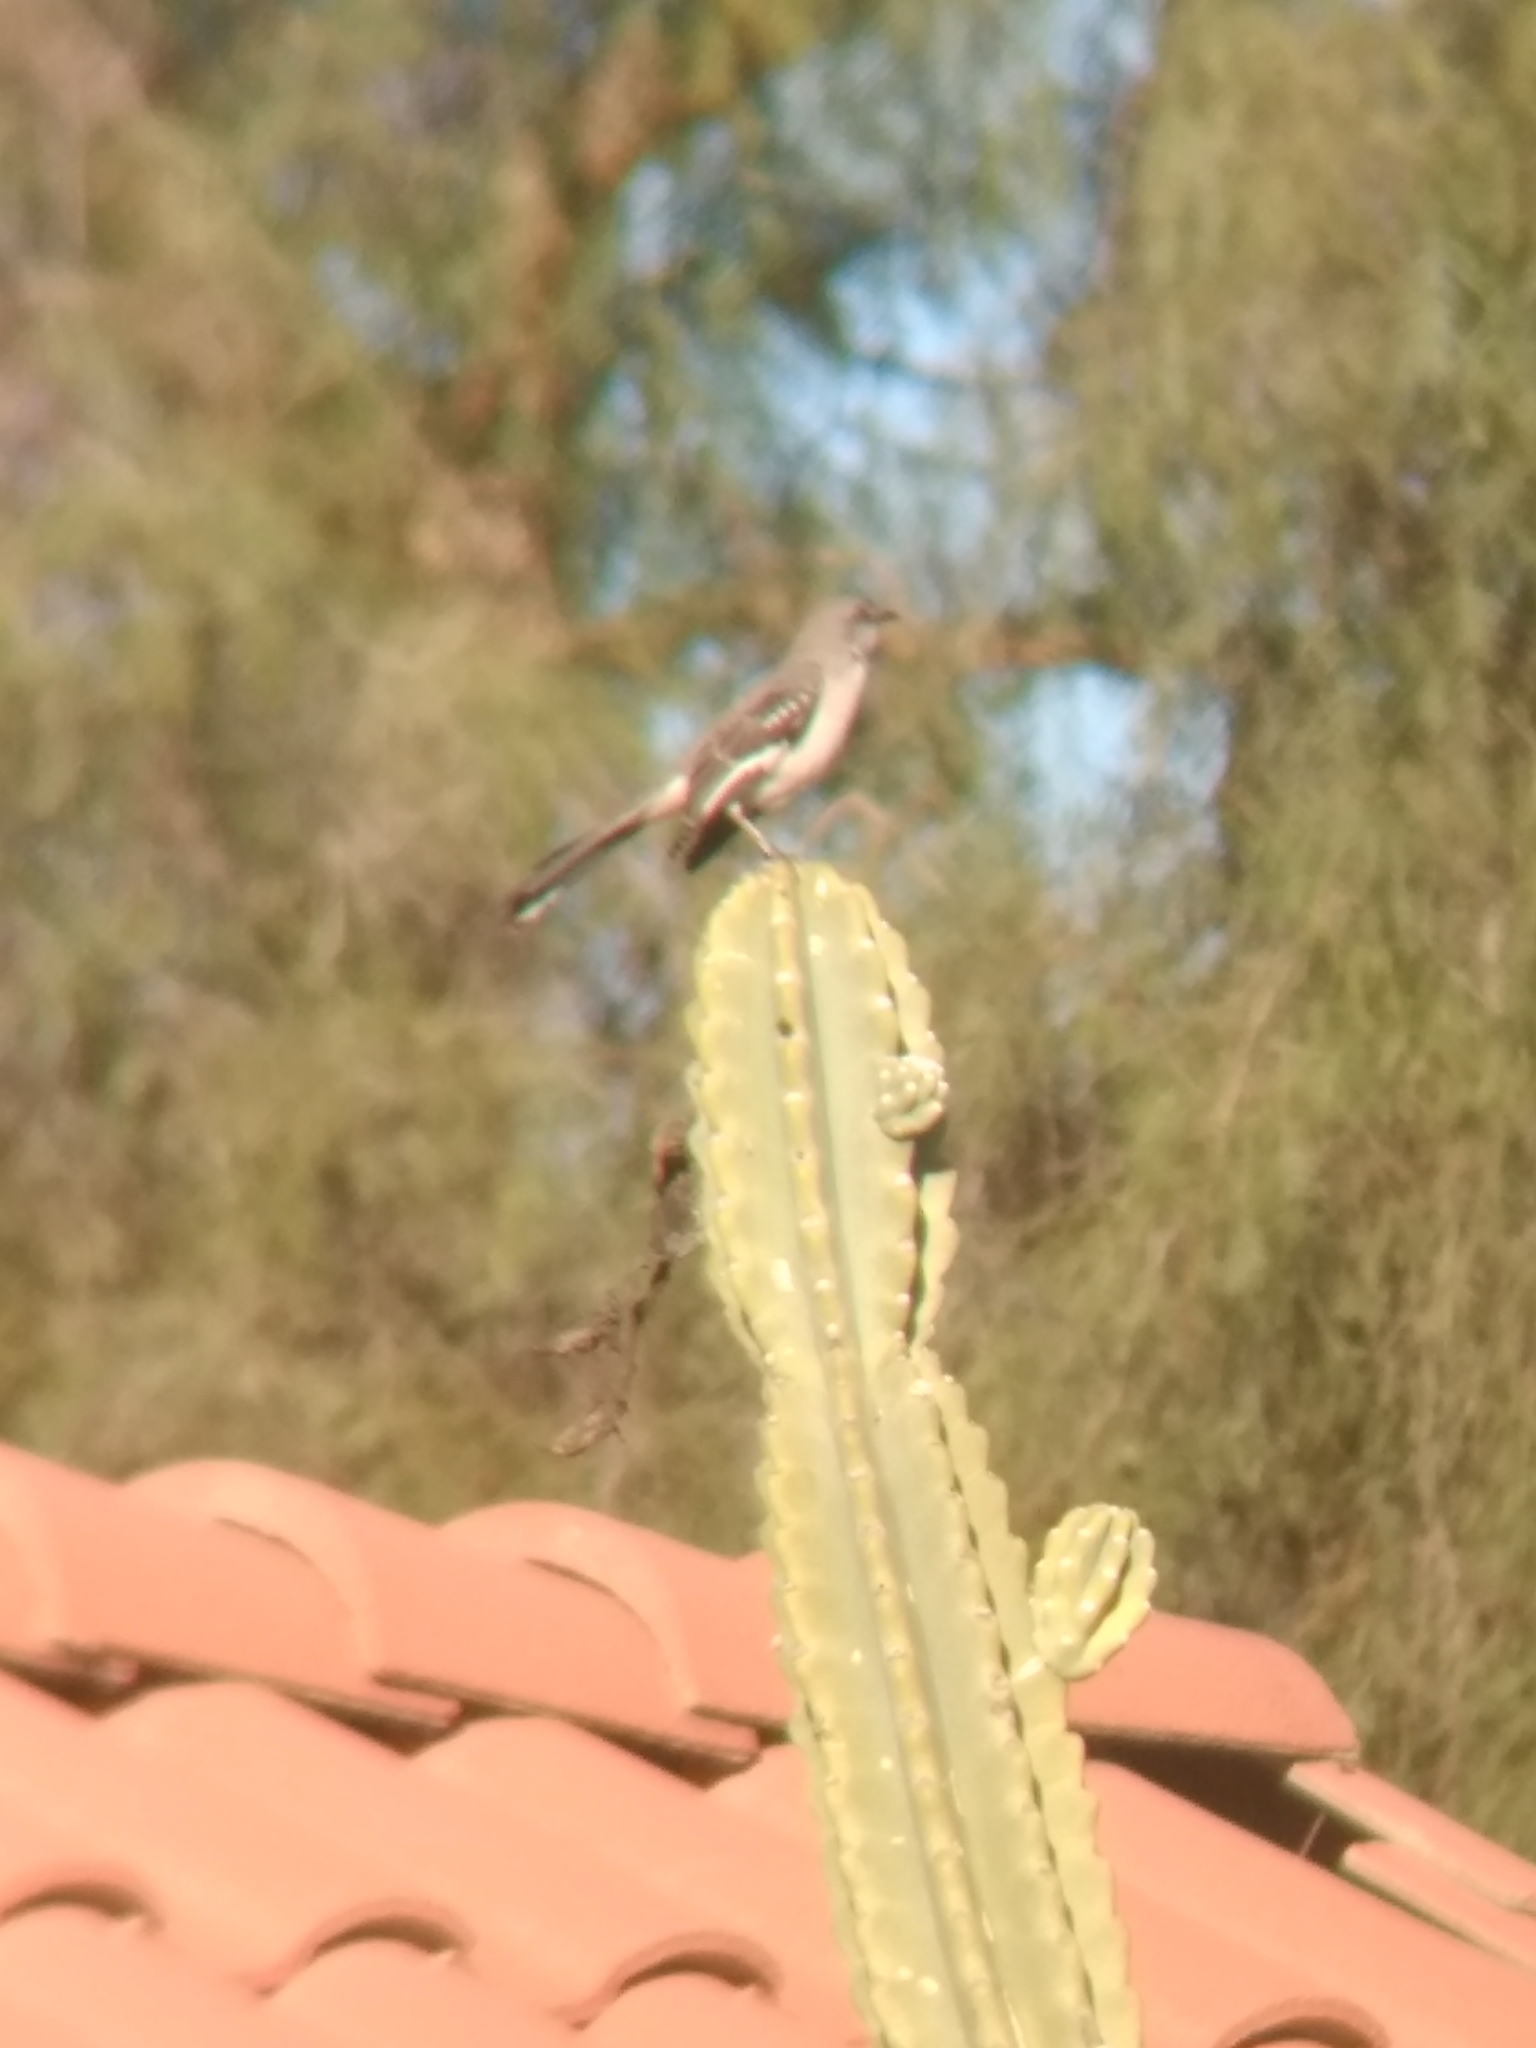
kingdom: Animalia
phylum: Chordata
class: Aves
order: Passeriformes
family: Mimidae
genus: Mimus
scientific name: Mimus polyglottos
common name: Northern mockingbird
